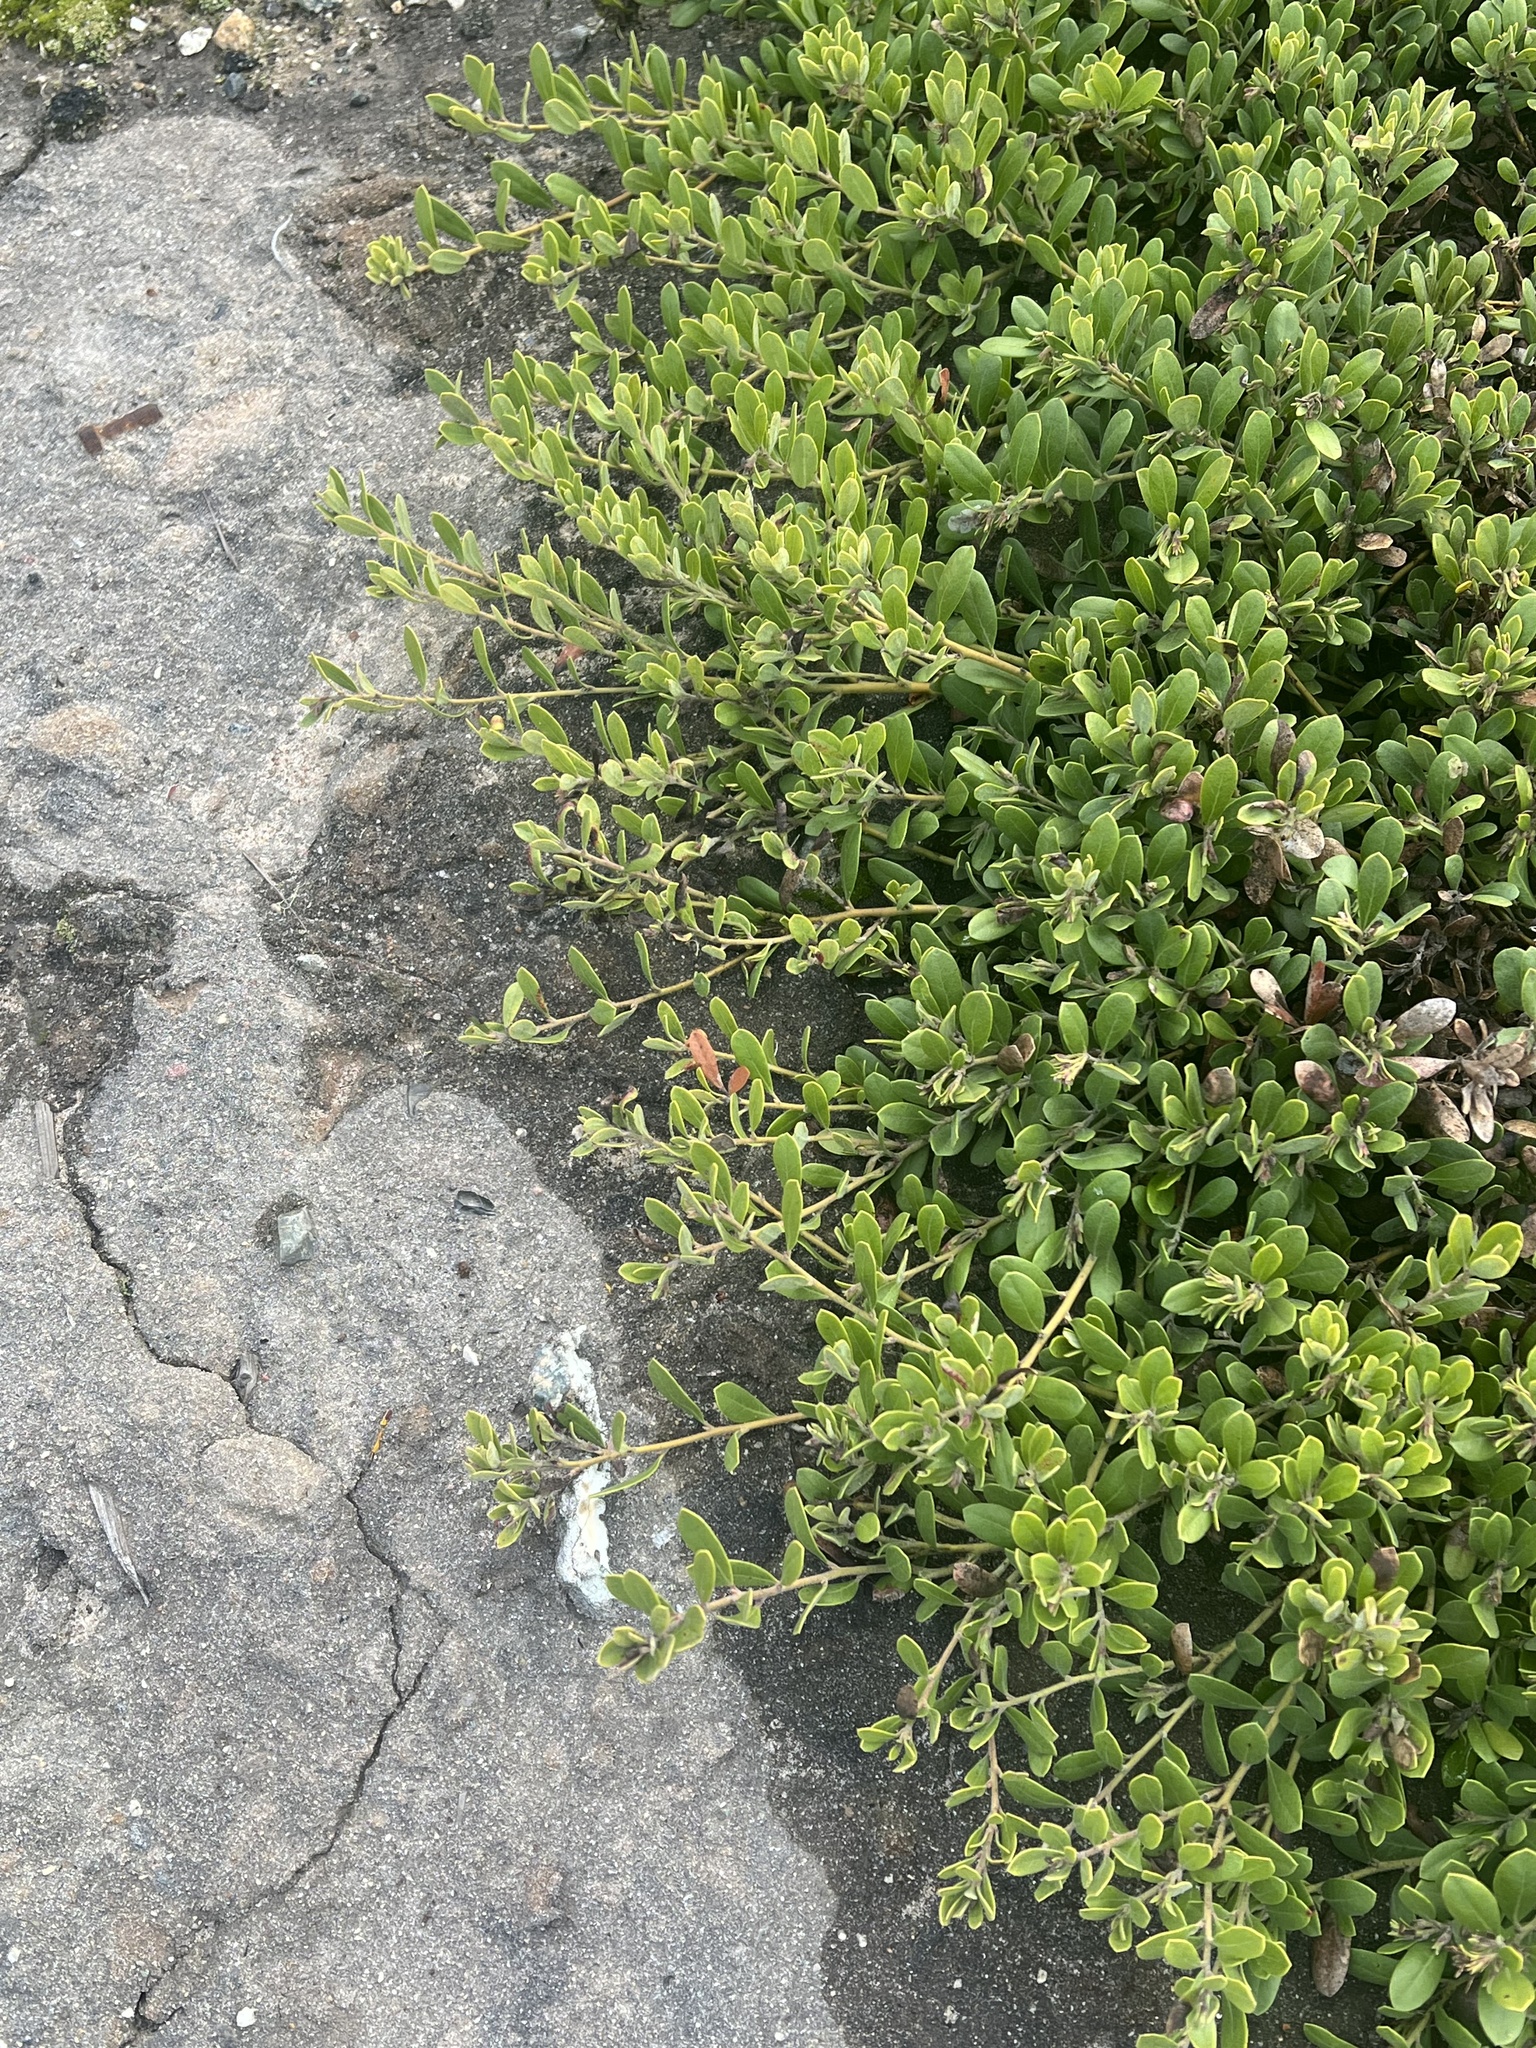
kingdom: Plantae
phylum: Tracheophyta
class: Magnoliopsida
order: Ericales
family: Ericaceae
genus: Arctostaphylos
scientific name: Arctostaphylos pumila
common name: Sandmat manzanita
